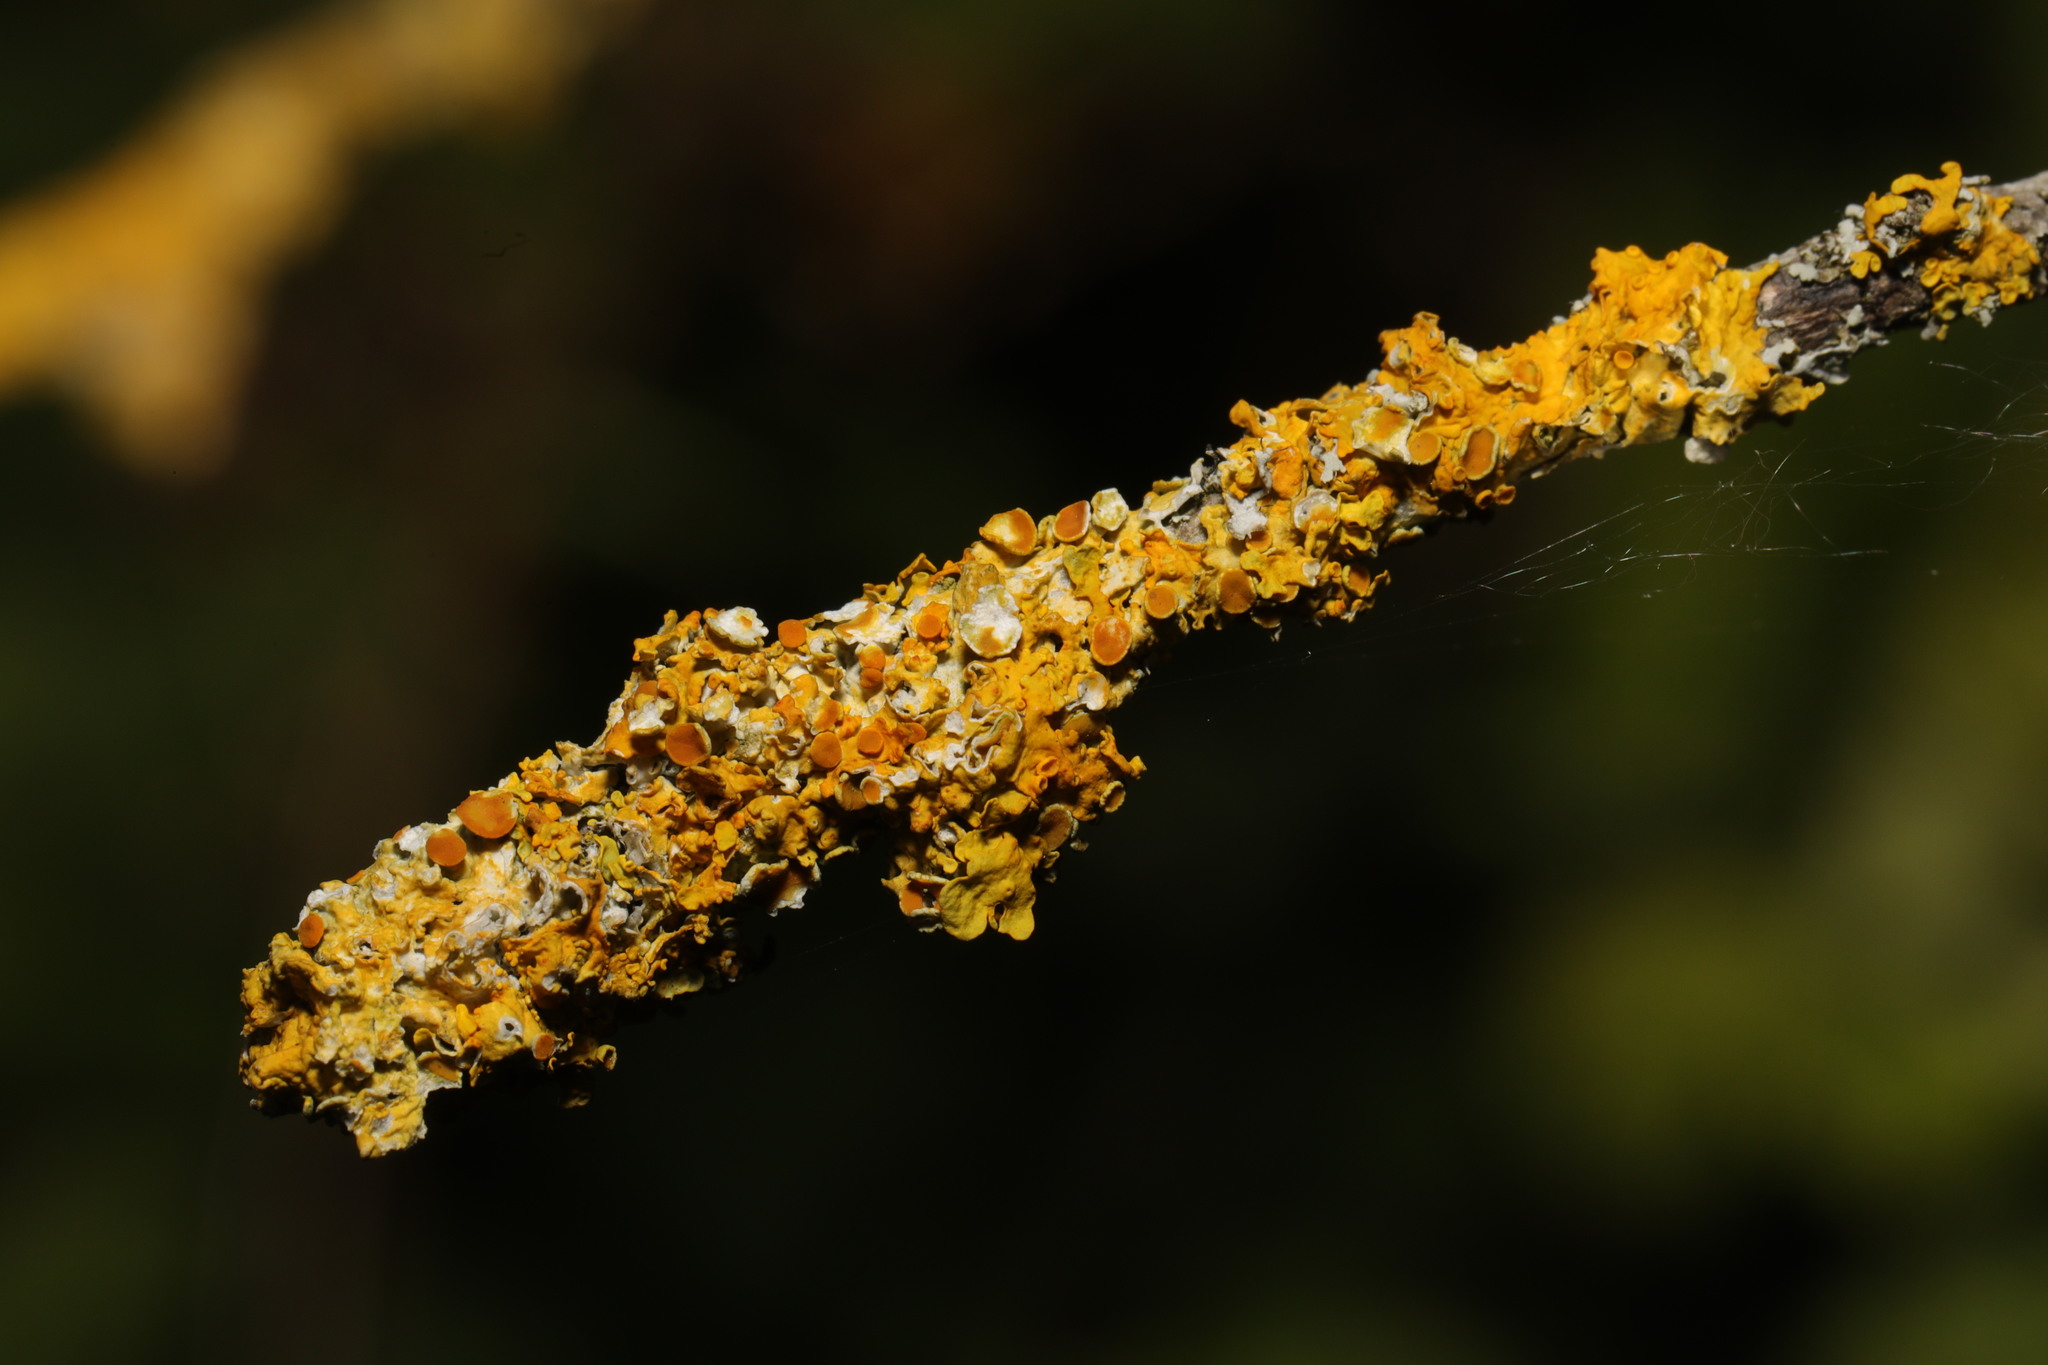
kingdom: Fungi
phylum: Ascomycota
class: Lecanoromycetes
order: Teloschistales
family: Teloschistaceae
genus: Xanthoria
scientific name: Xanthoria parietina
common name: Common orange lichen
